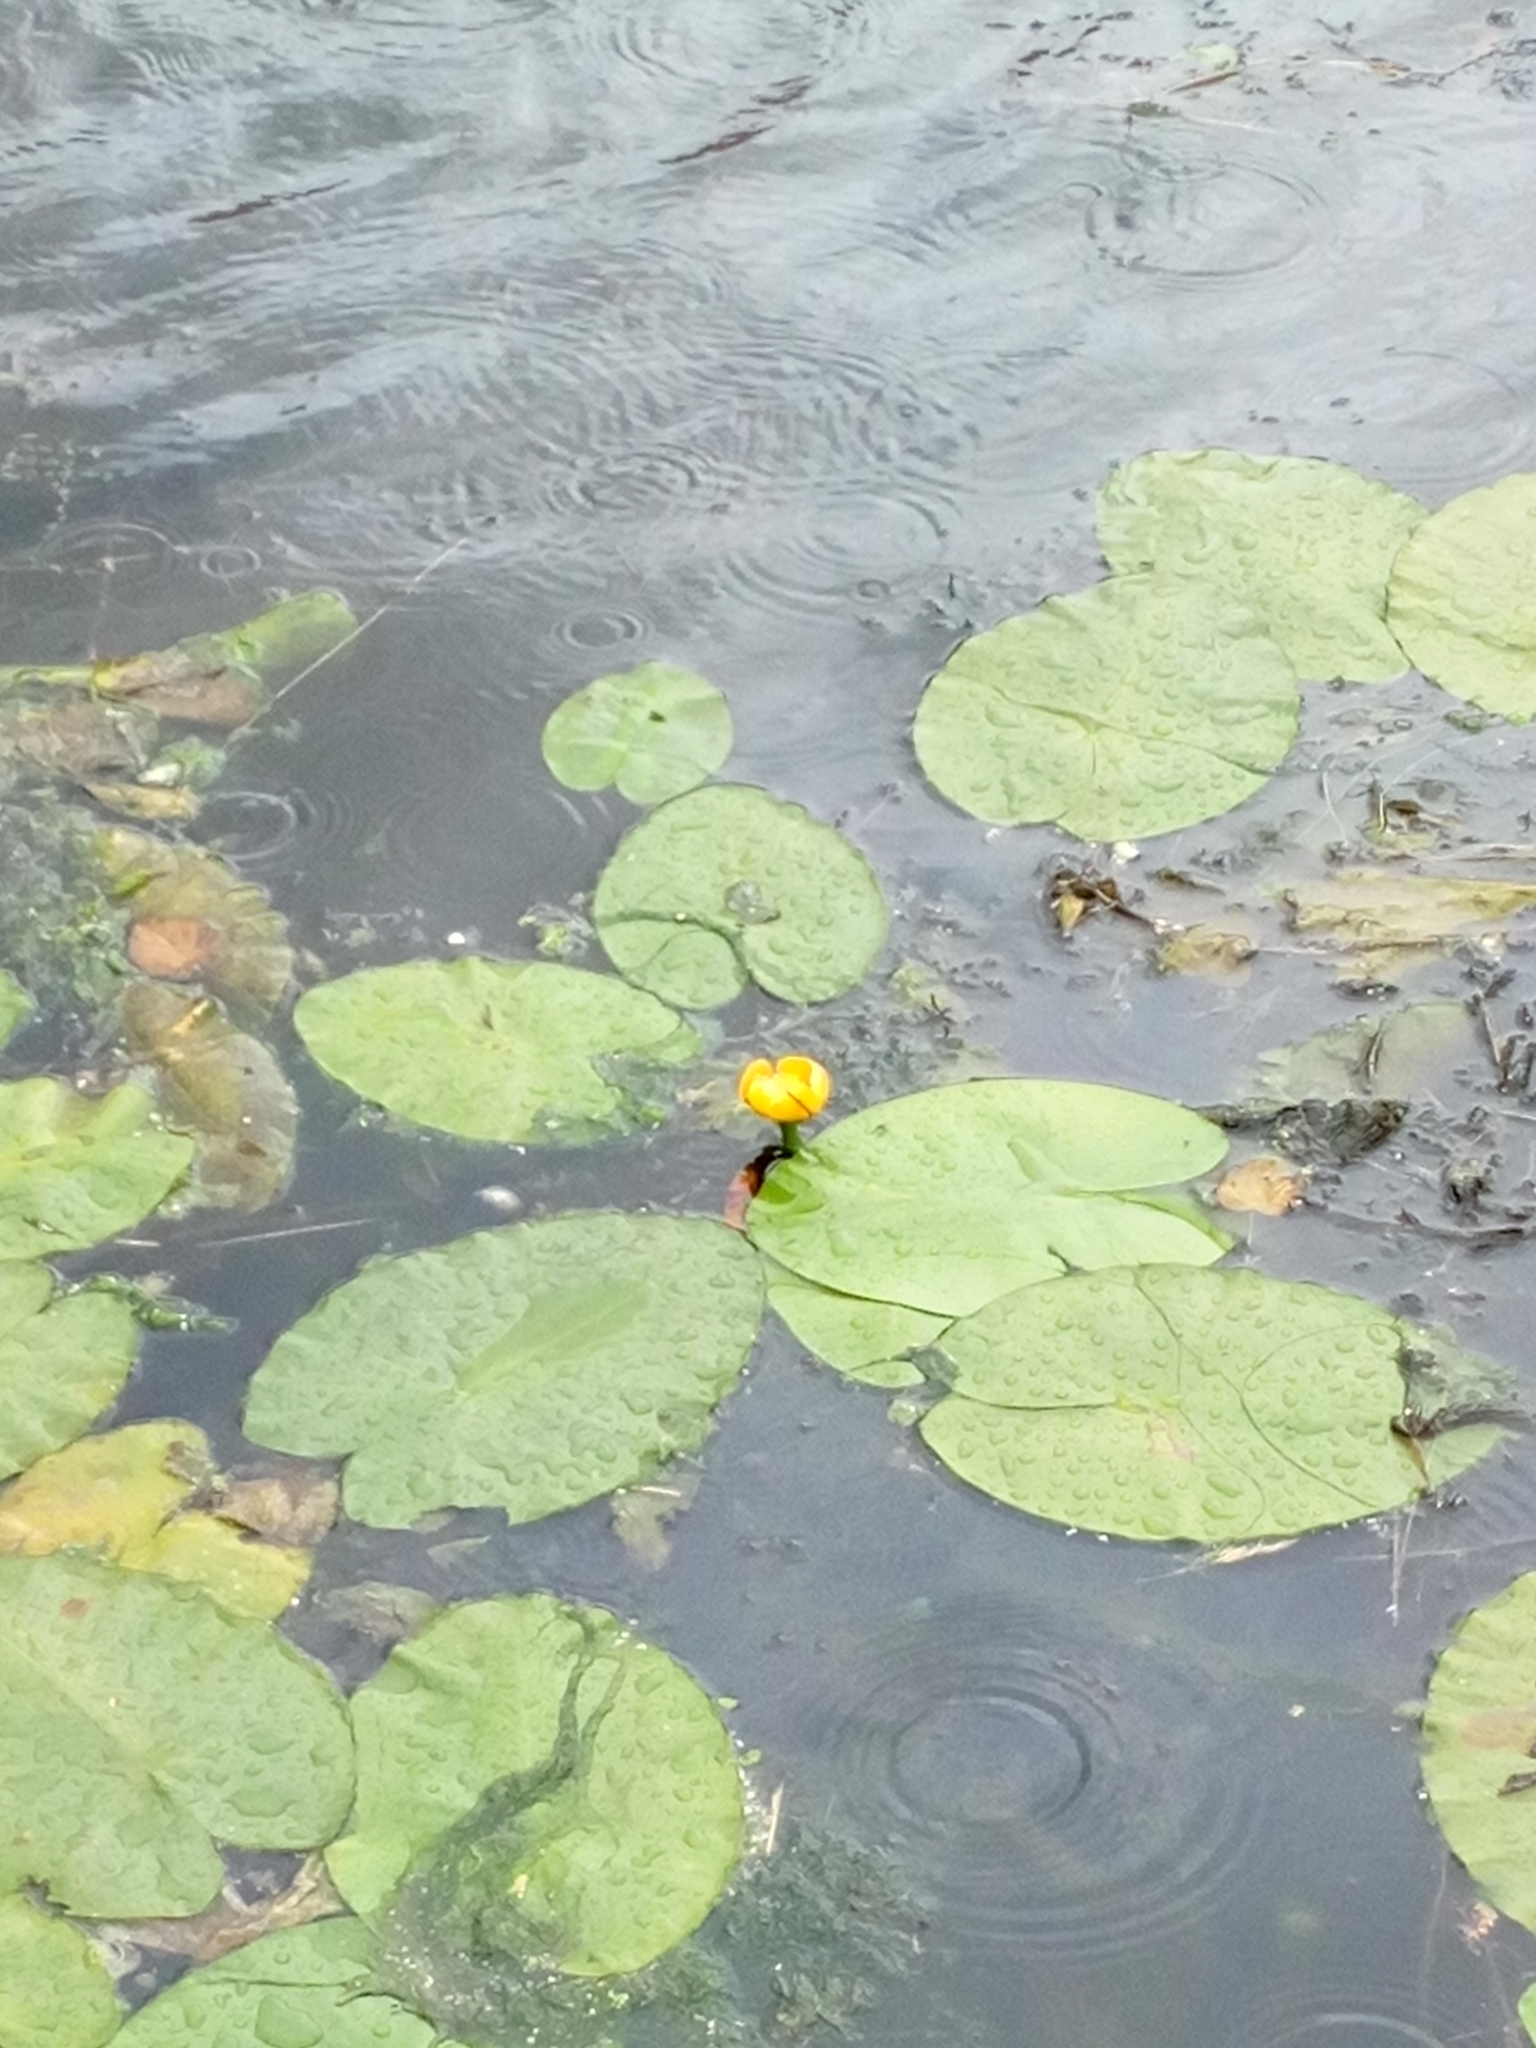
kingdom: Plantae
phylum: Tracheophyta
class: Magnoliopsida
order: Nymphaeales
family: Nymphaeaceae
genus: Nuphar
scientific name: Nuphar lutea
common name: Yellow water-lily
